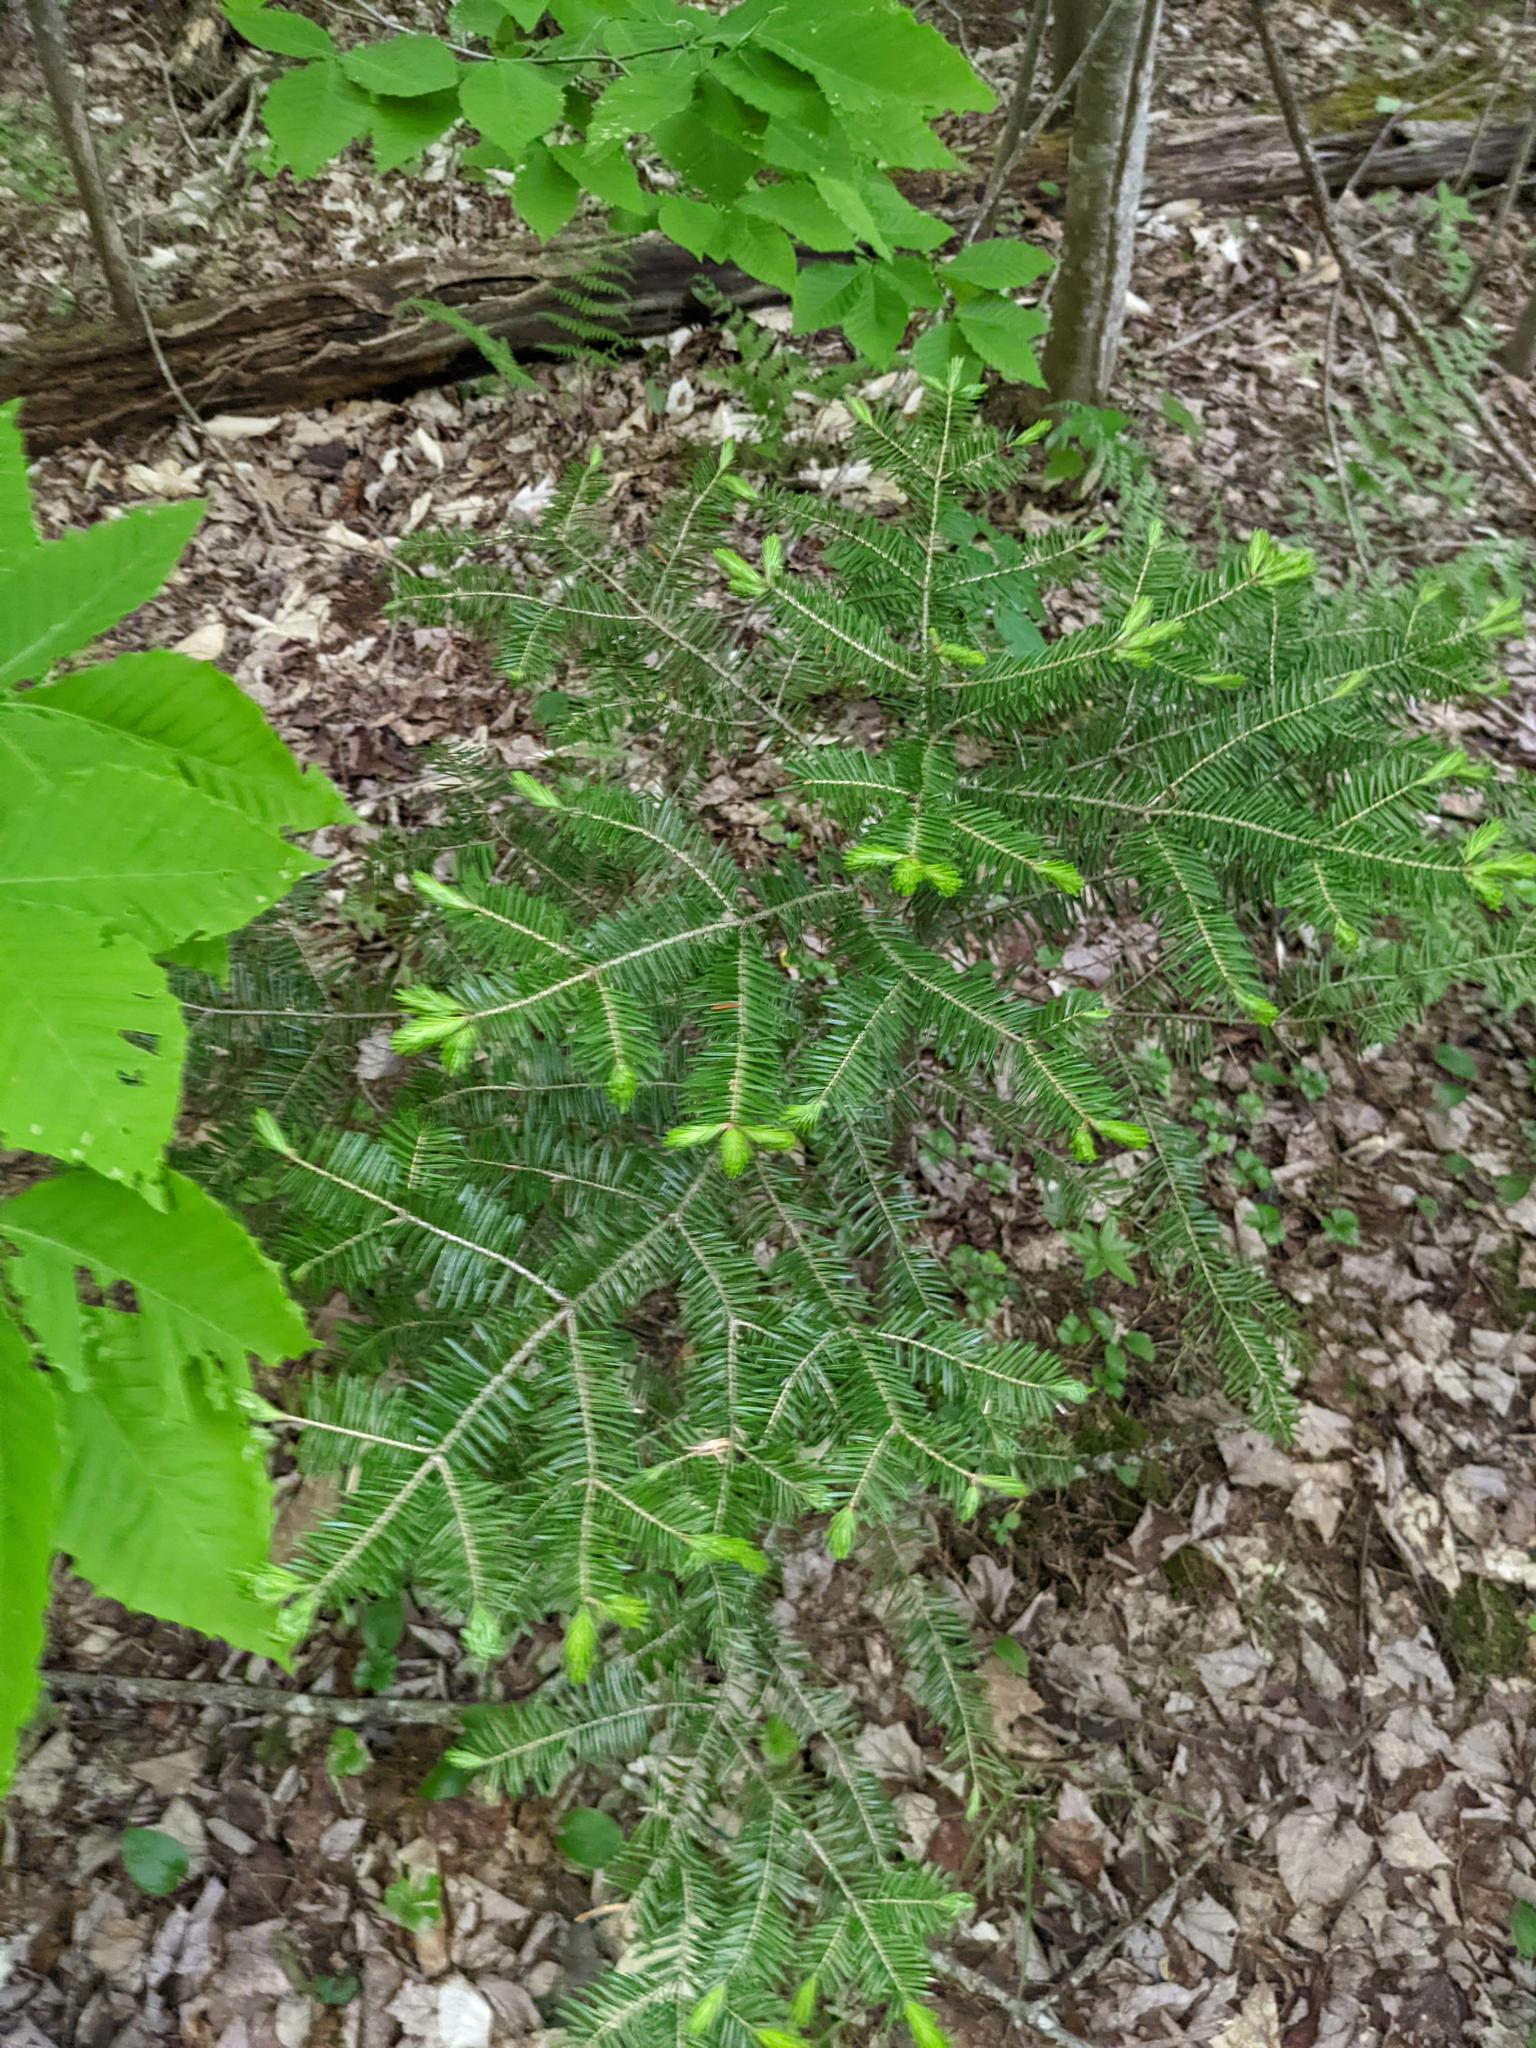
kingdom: Plantae
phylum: Tracheophyta
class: Pinopsida
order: Pinales
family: Pinaceae
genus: Abies
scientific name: Abies balsamea
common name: Balsam fir
